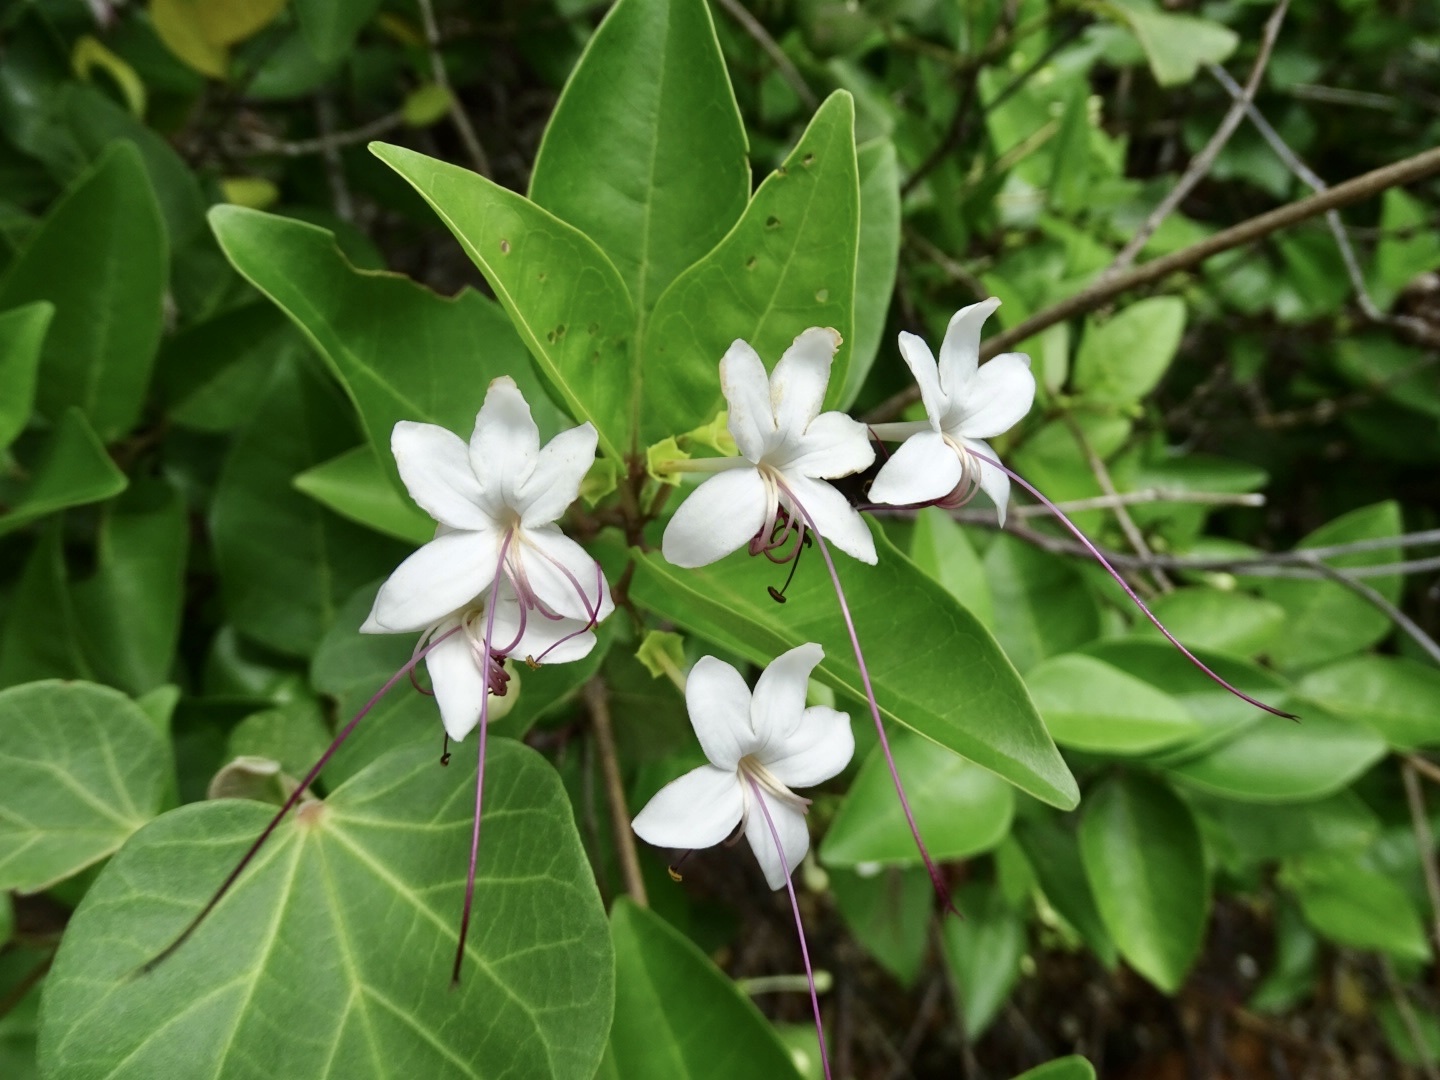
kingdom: Plantae
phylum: Tracheophyta
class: Magnoliopsida
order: Lamiales
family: Lamiaceae
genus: Volkameria
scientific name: Volkameria inermis
